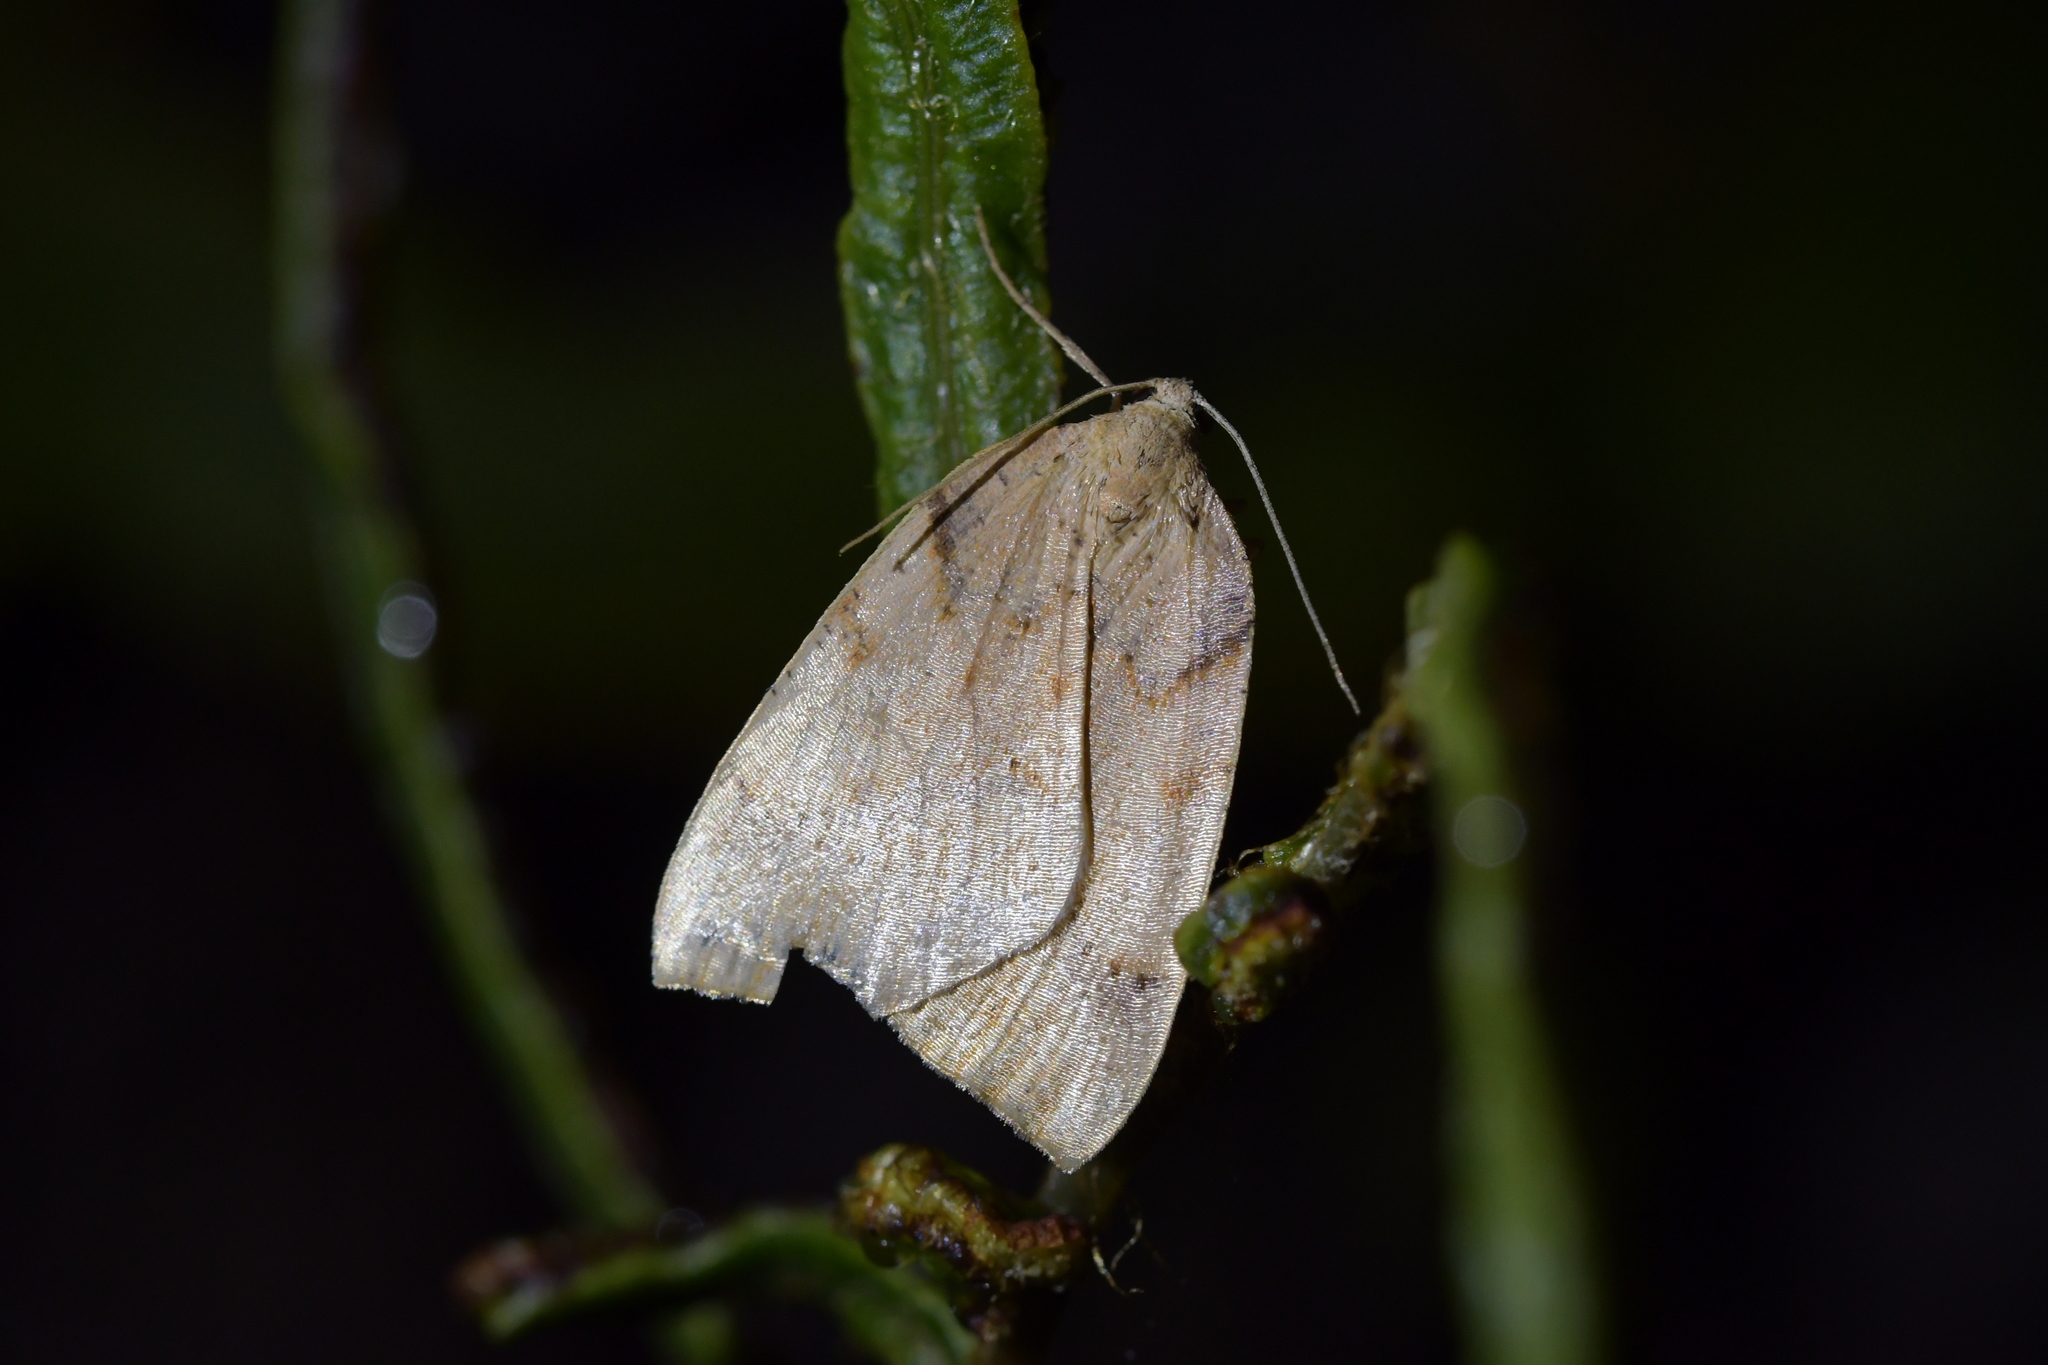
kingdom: Animalia
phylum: Arthropoda
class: Insecta
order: Lepidoptera
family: Geometridae
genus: Sestra
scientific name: Sestra humeraria
